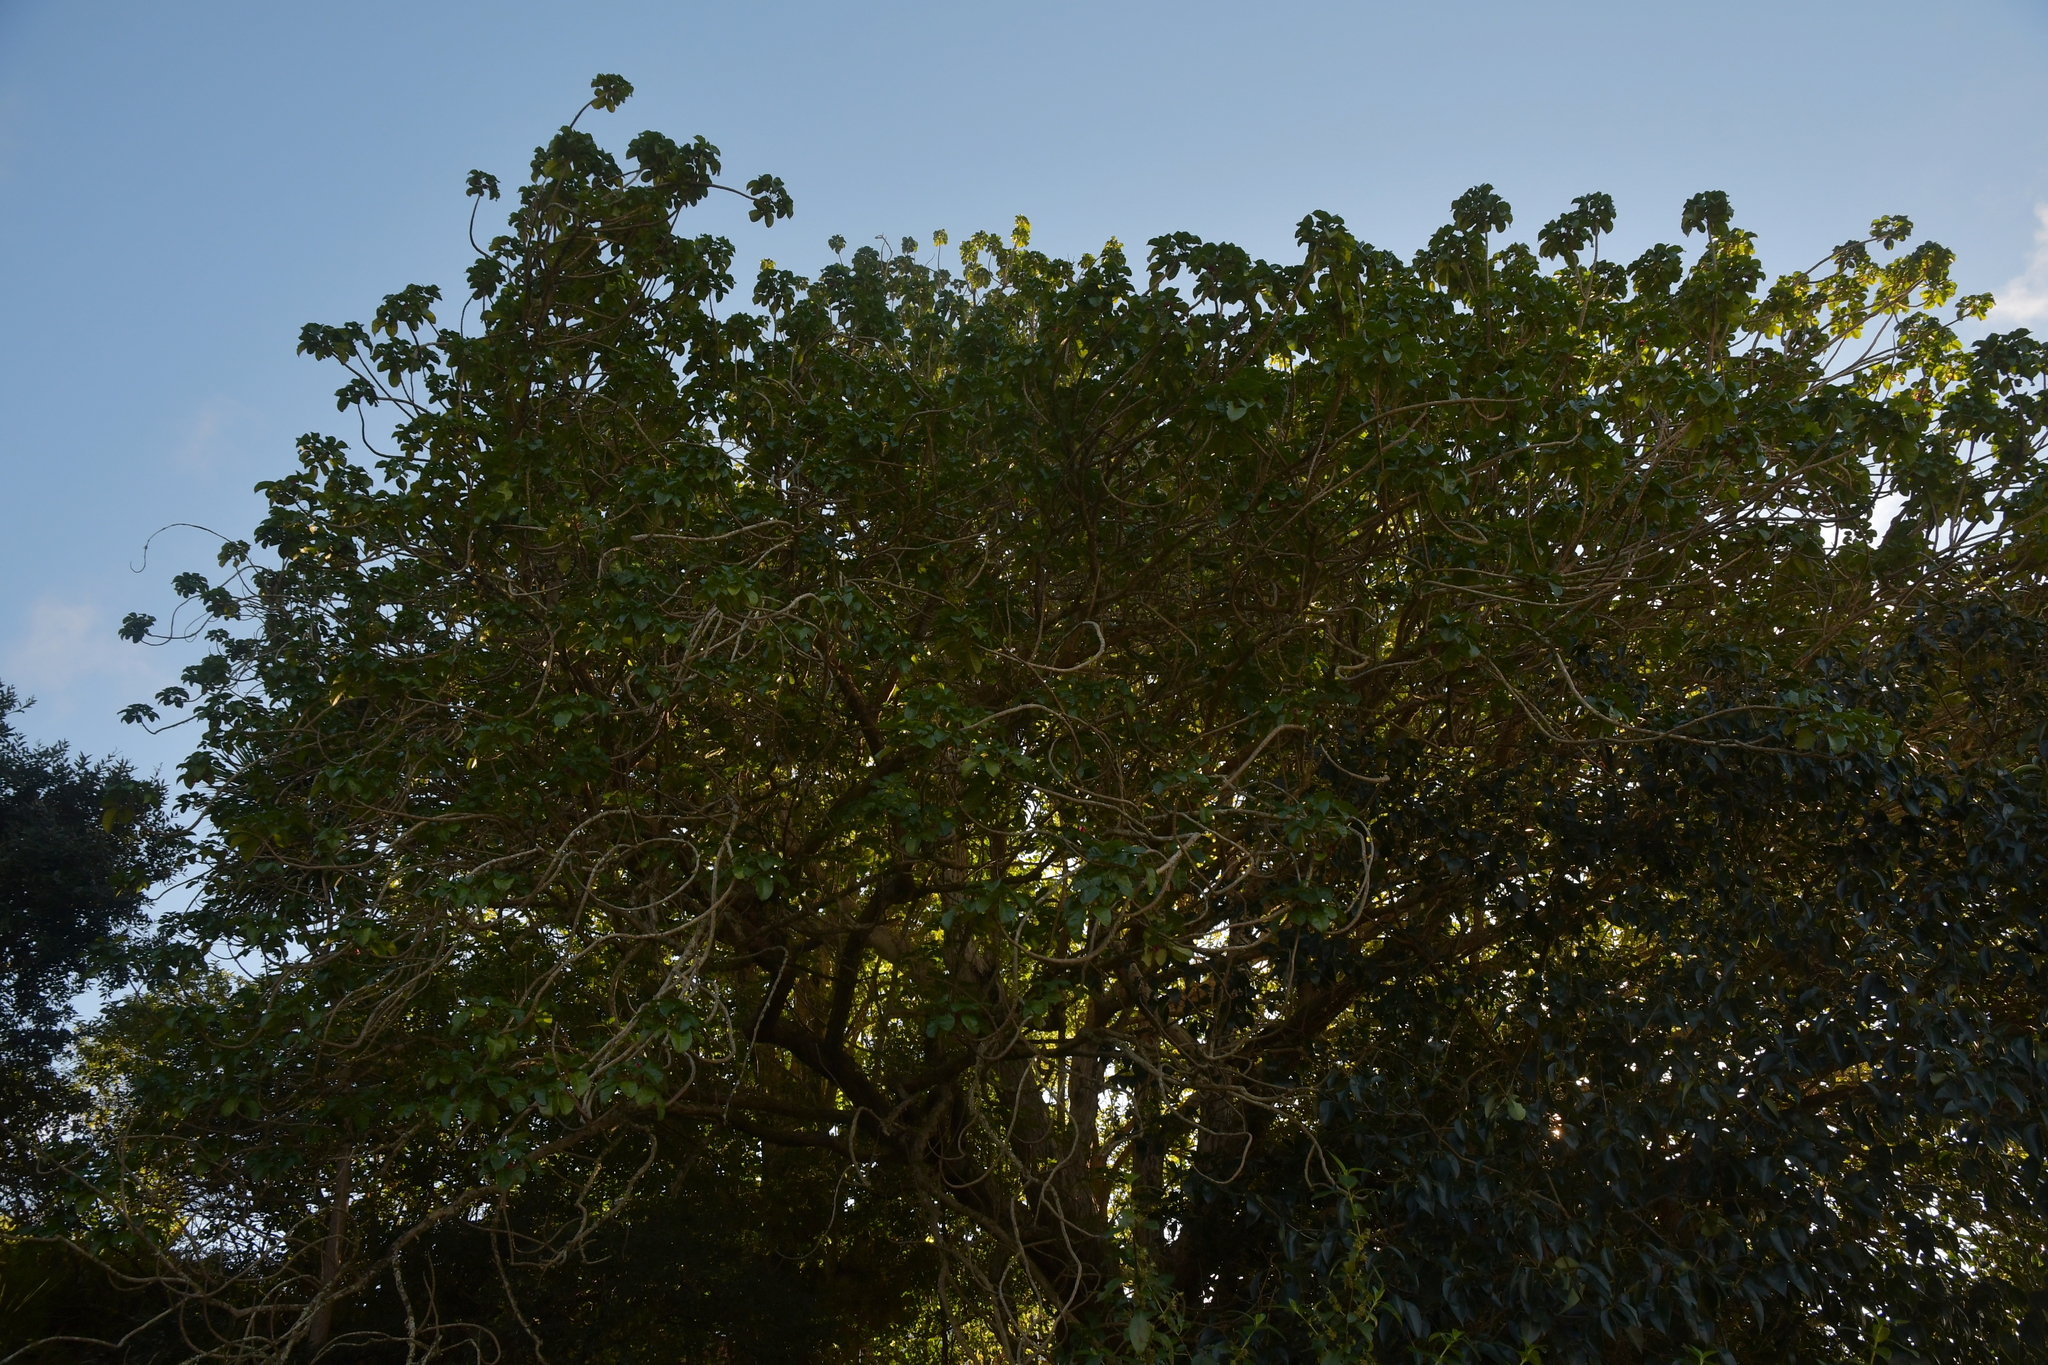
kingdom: Plantae
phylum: Tracheophyta
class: Magnoliopsida
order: Lamiales
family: Lamiaceae
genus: Vitex
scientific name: Vitex lucens
